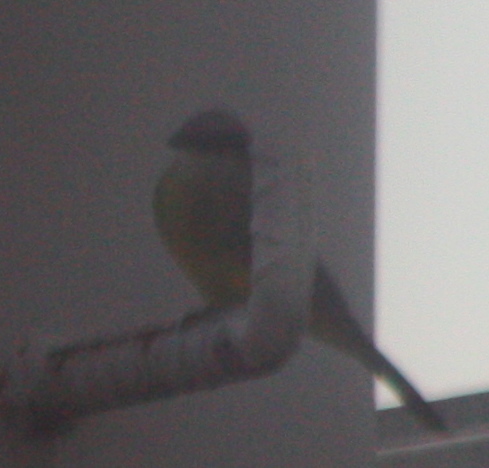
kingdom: Animalia
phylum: Chordata
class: Aves
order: Passeriformes
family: Tyrannidae
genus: Tyrannus
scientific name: Tyrannus melancholicus
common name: Tropical kingbird
